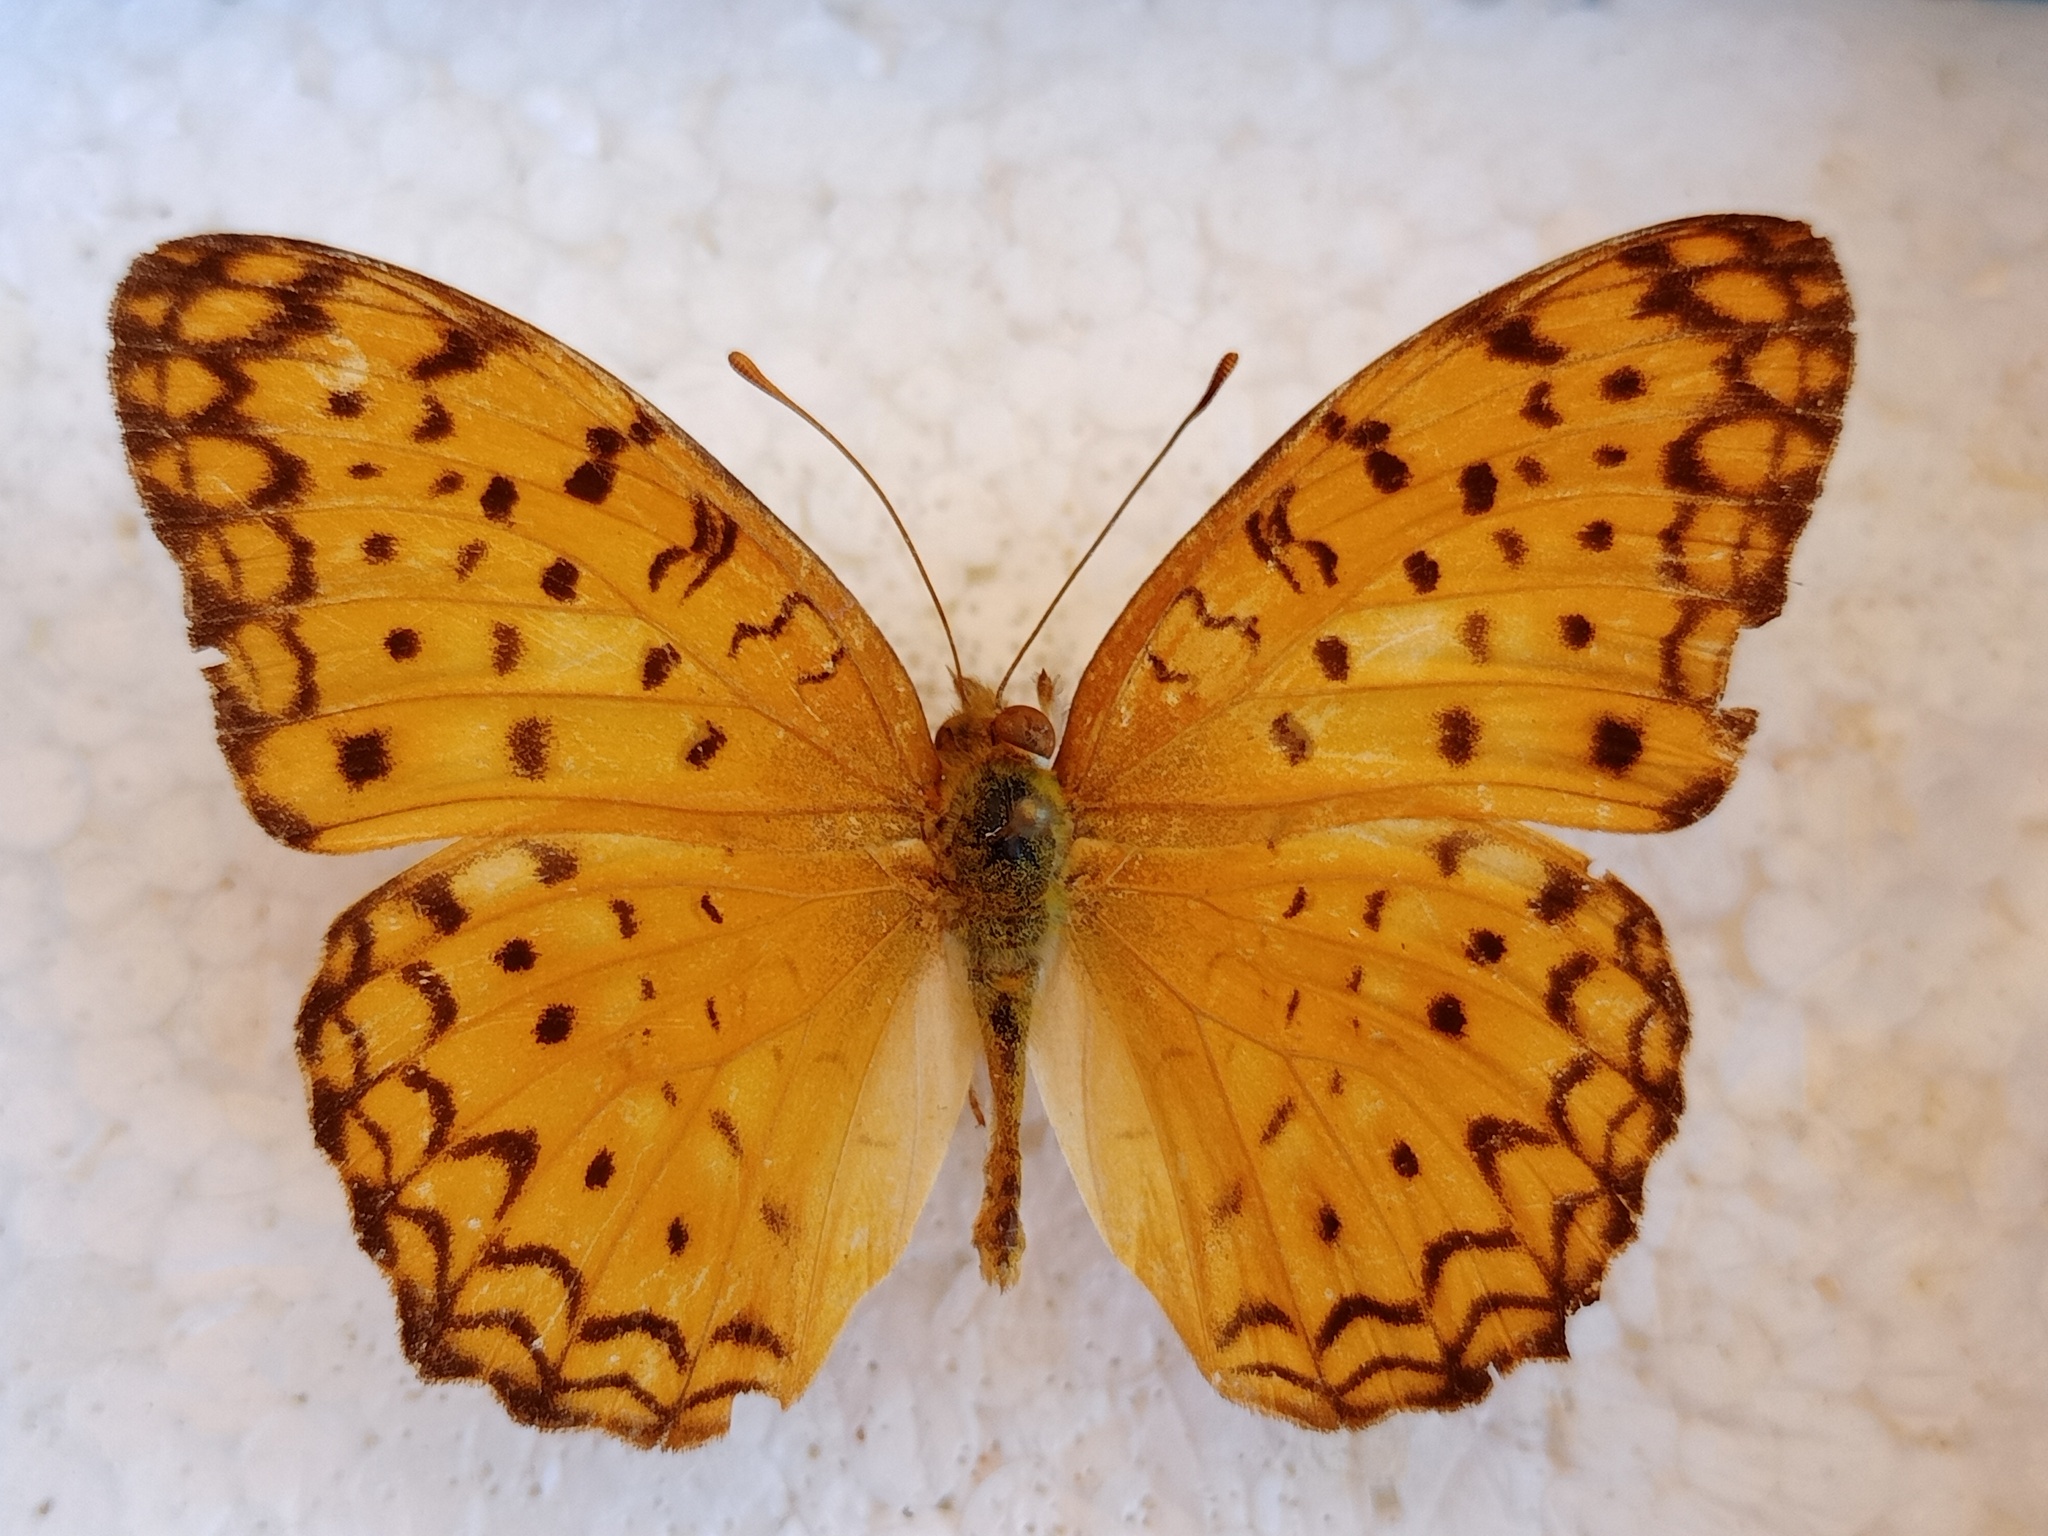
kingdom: Animalia
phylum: Arthropoda
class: Insecta
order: Lepidoptera
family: Nymphalidae
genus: Phalanta
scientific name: Phalanta phalantha
